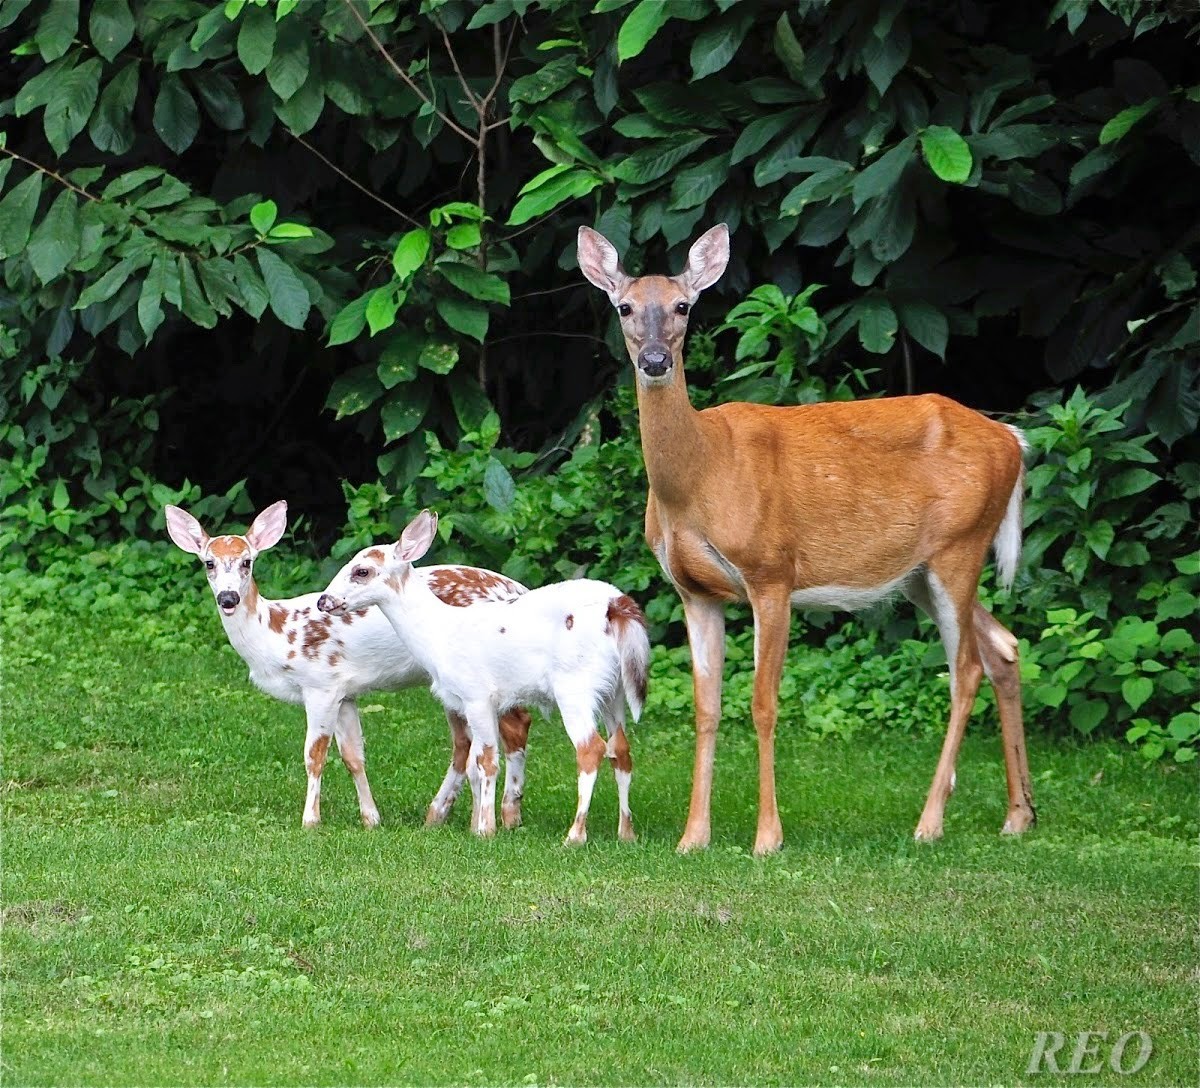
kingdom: Animalia
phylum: Chordata
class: Mammalia
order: Artiodactyla
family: Cervidae
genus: Odocoileus
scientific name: Odocoileus virginianus
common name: White-tailed deer
